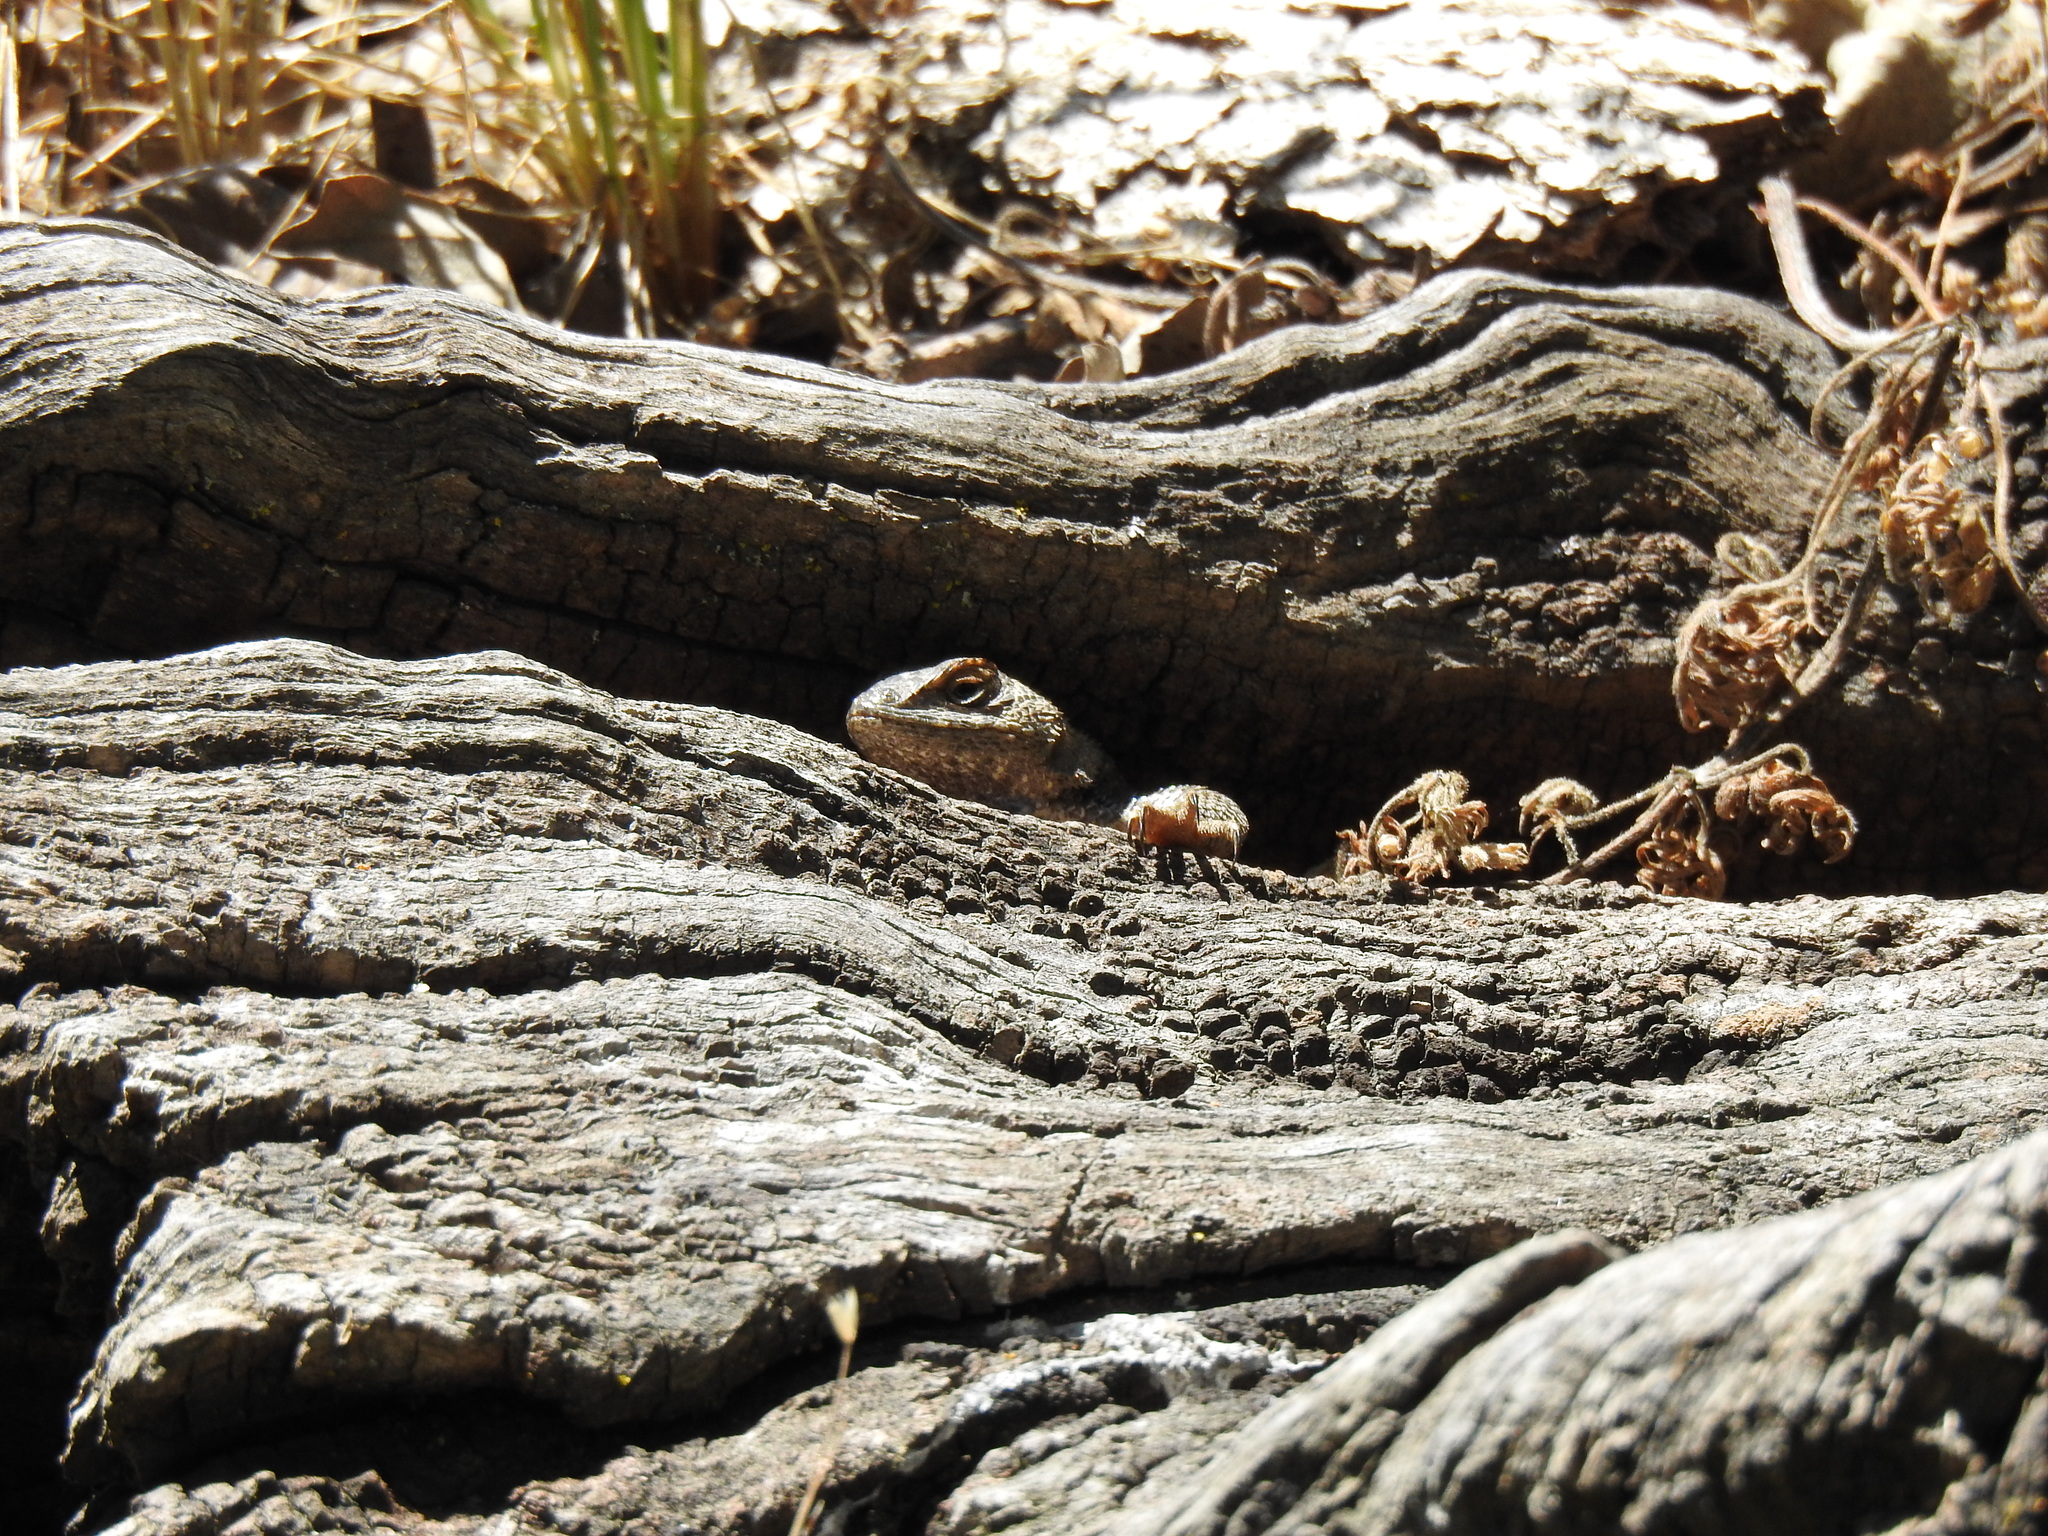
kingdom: Animalia
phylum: Chordata
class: Squamata
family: Phrynosomatidae
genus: Sceloporus
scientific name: Sceloporus occidentalis
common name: Western fence lizard
